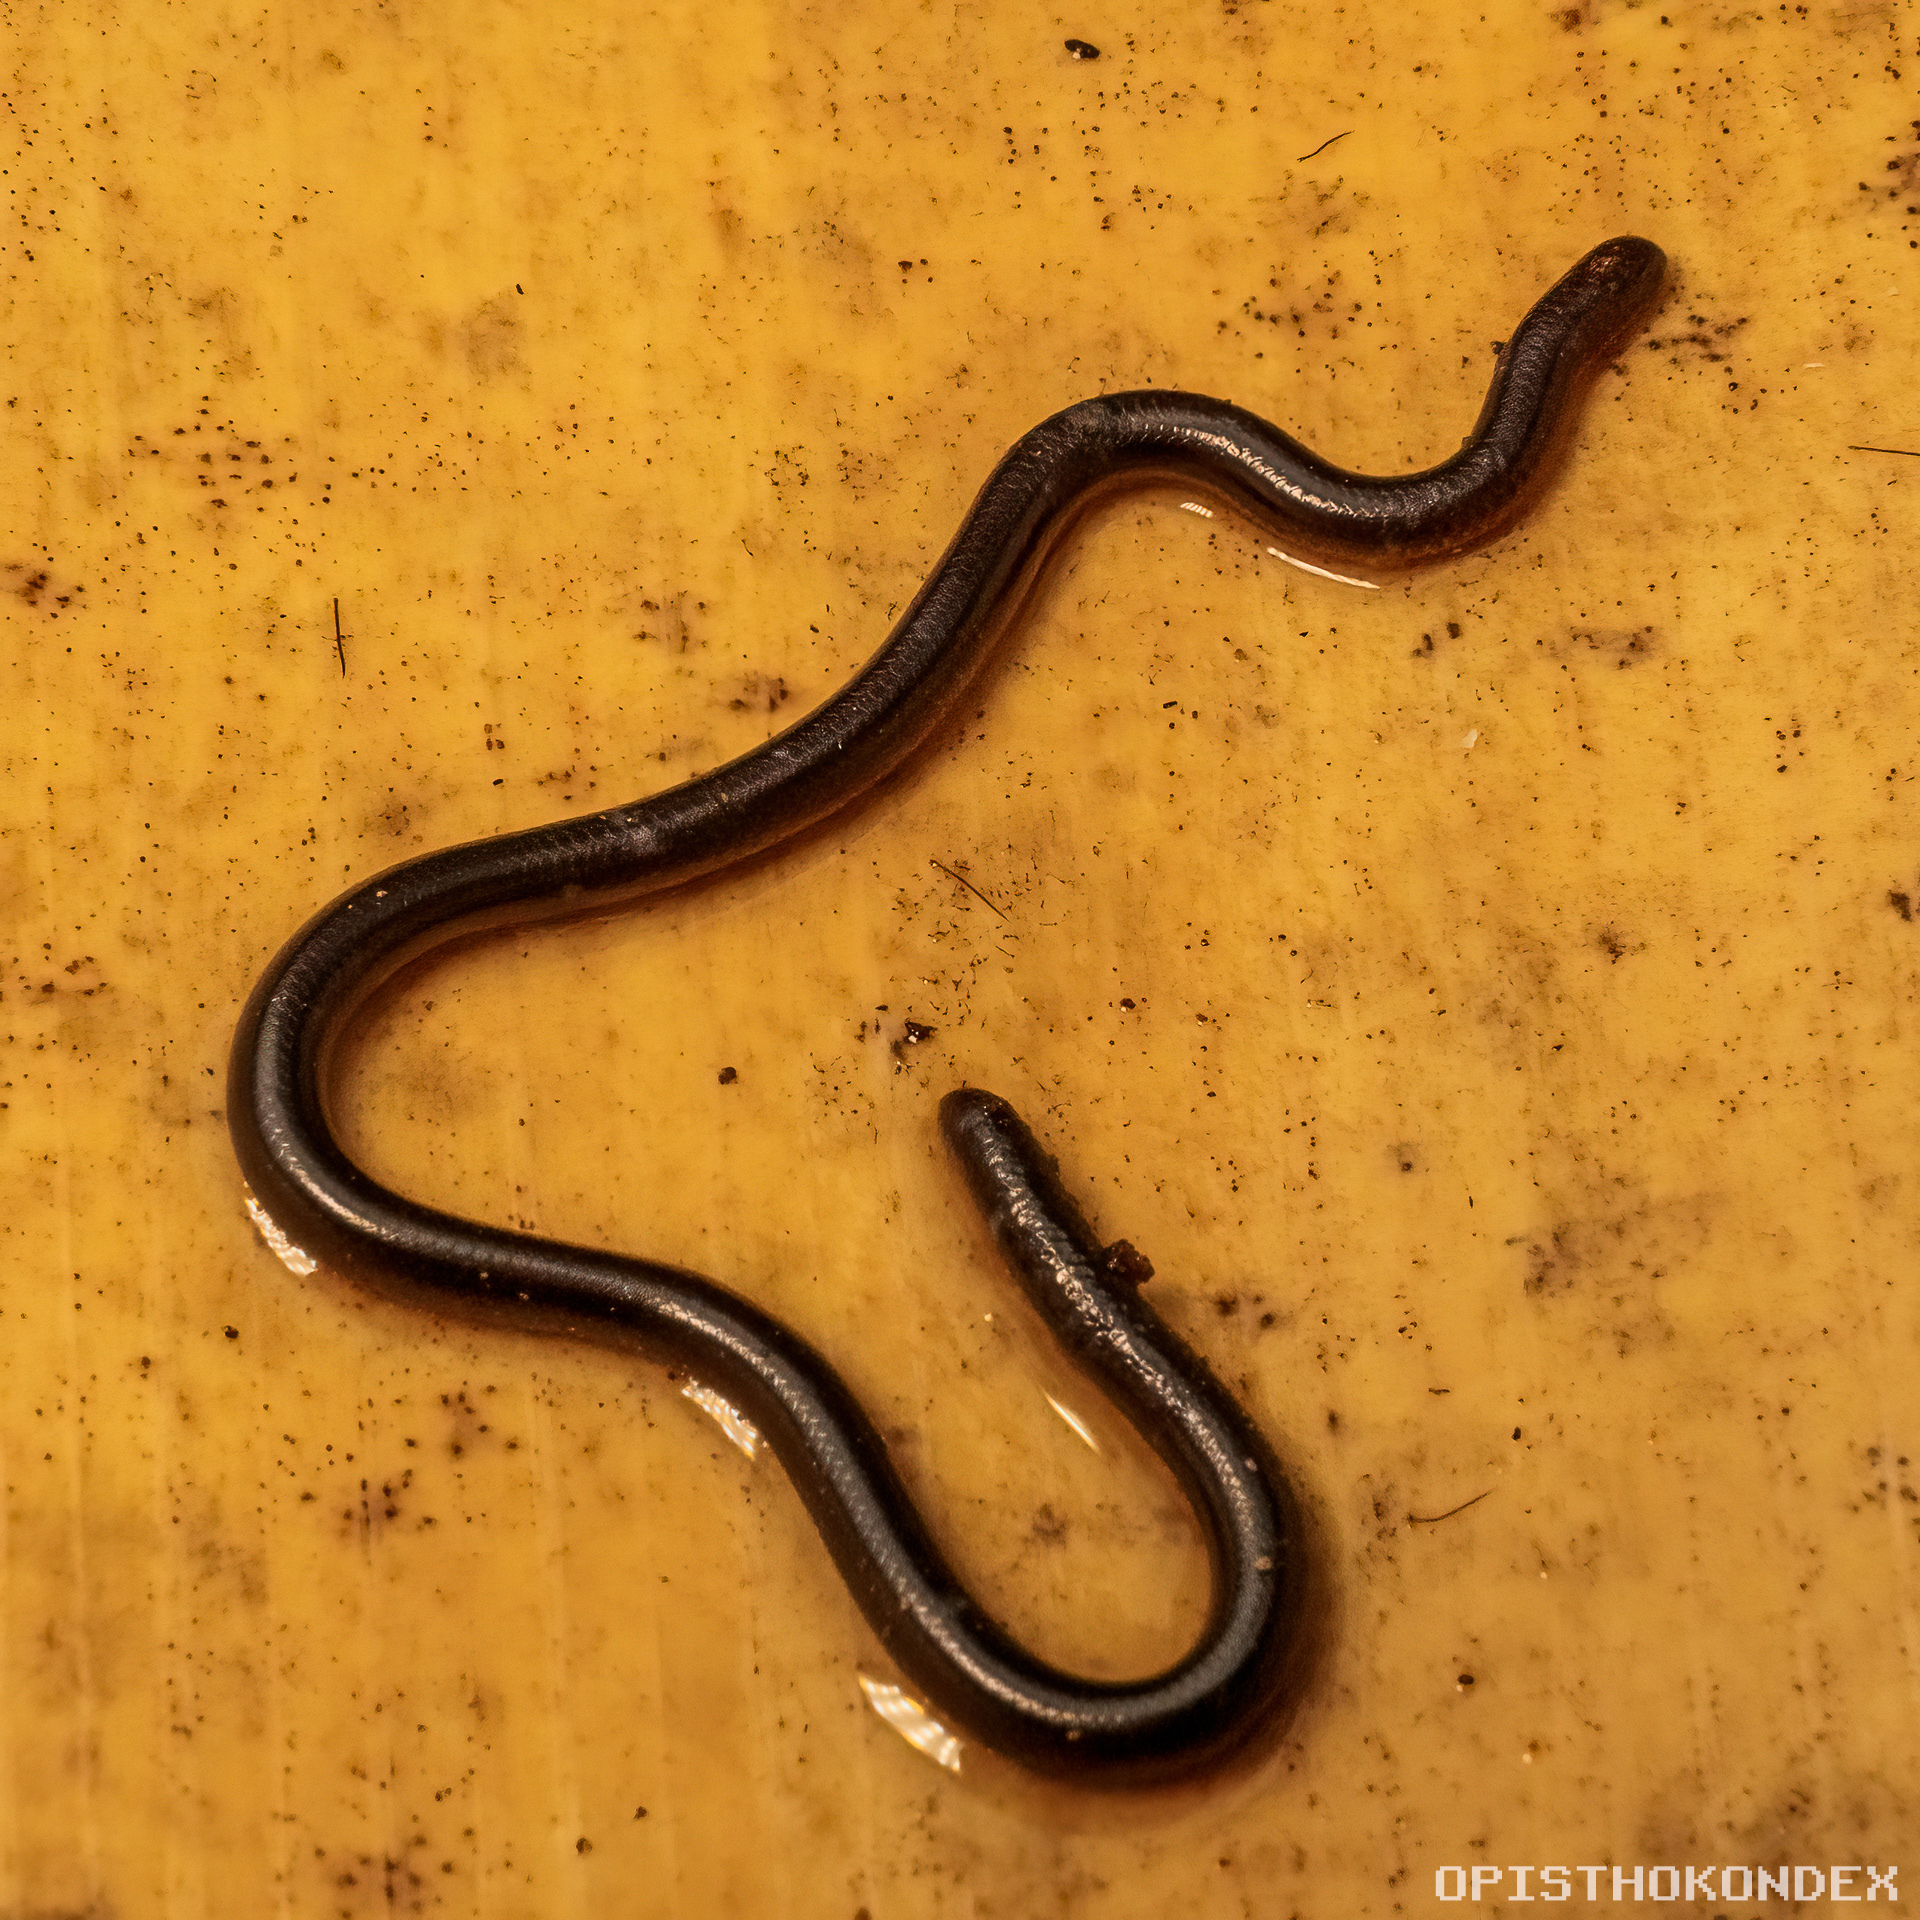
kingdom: Animalia
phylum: Chordata
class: Squamata
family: Typhlopidae
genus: Indotyphlops
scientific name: Indotyphlops braminus
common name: Brahminy blindsnake
